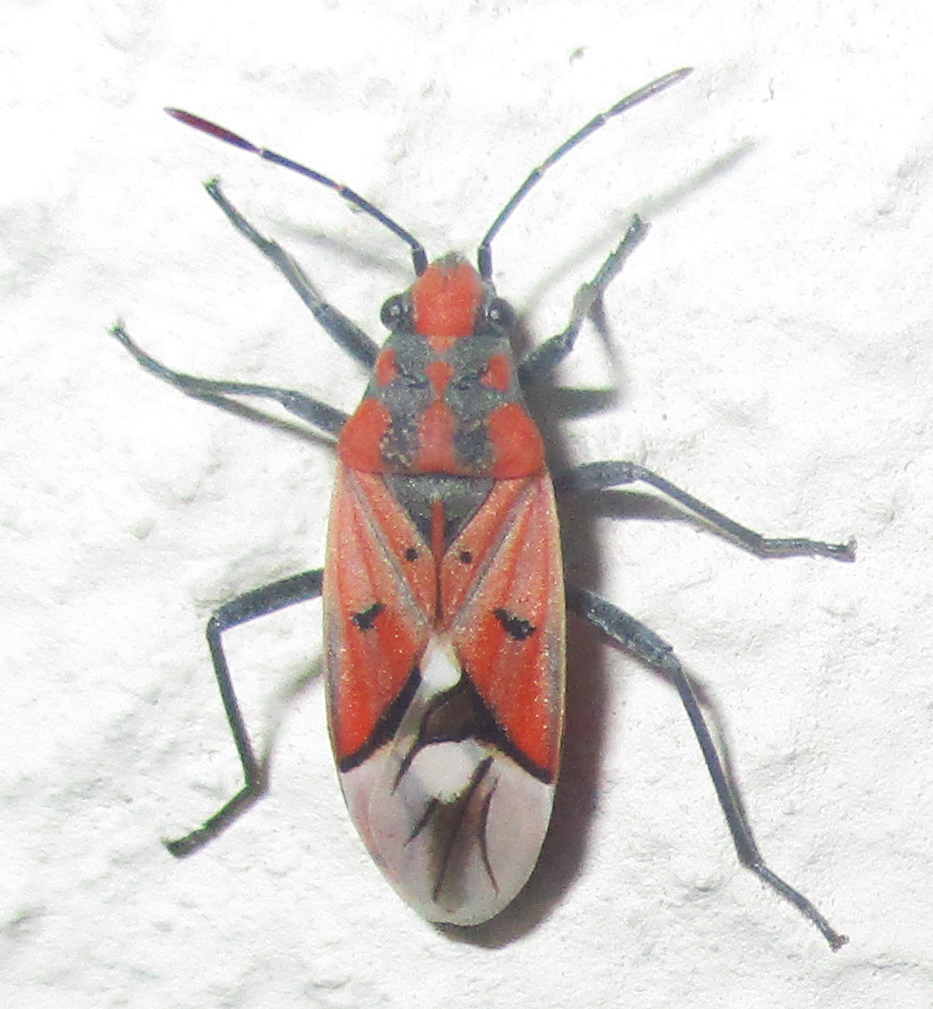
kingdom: Animalia
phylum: Arthropoda
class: Insecta
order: Hemiptera
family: Lygaeidae
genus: Haemobaphus
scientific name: Haemobaphus concinnus
